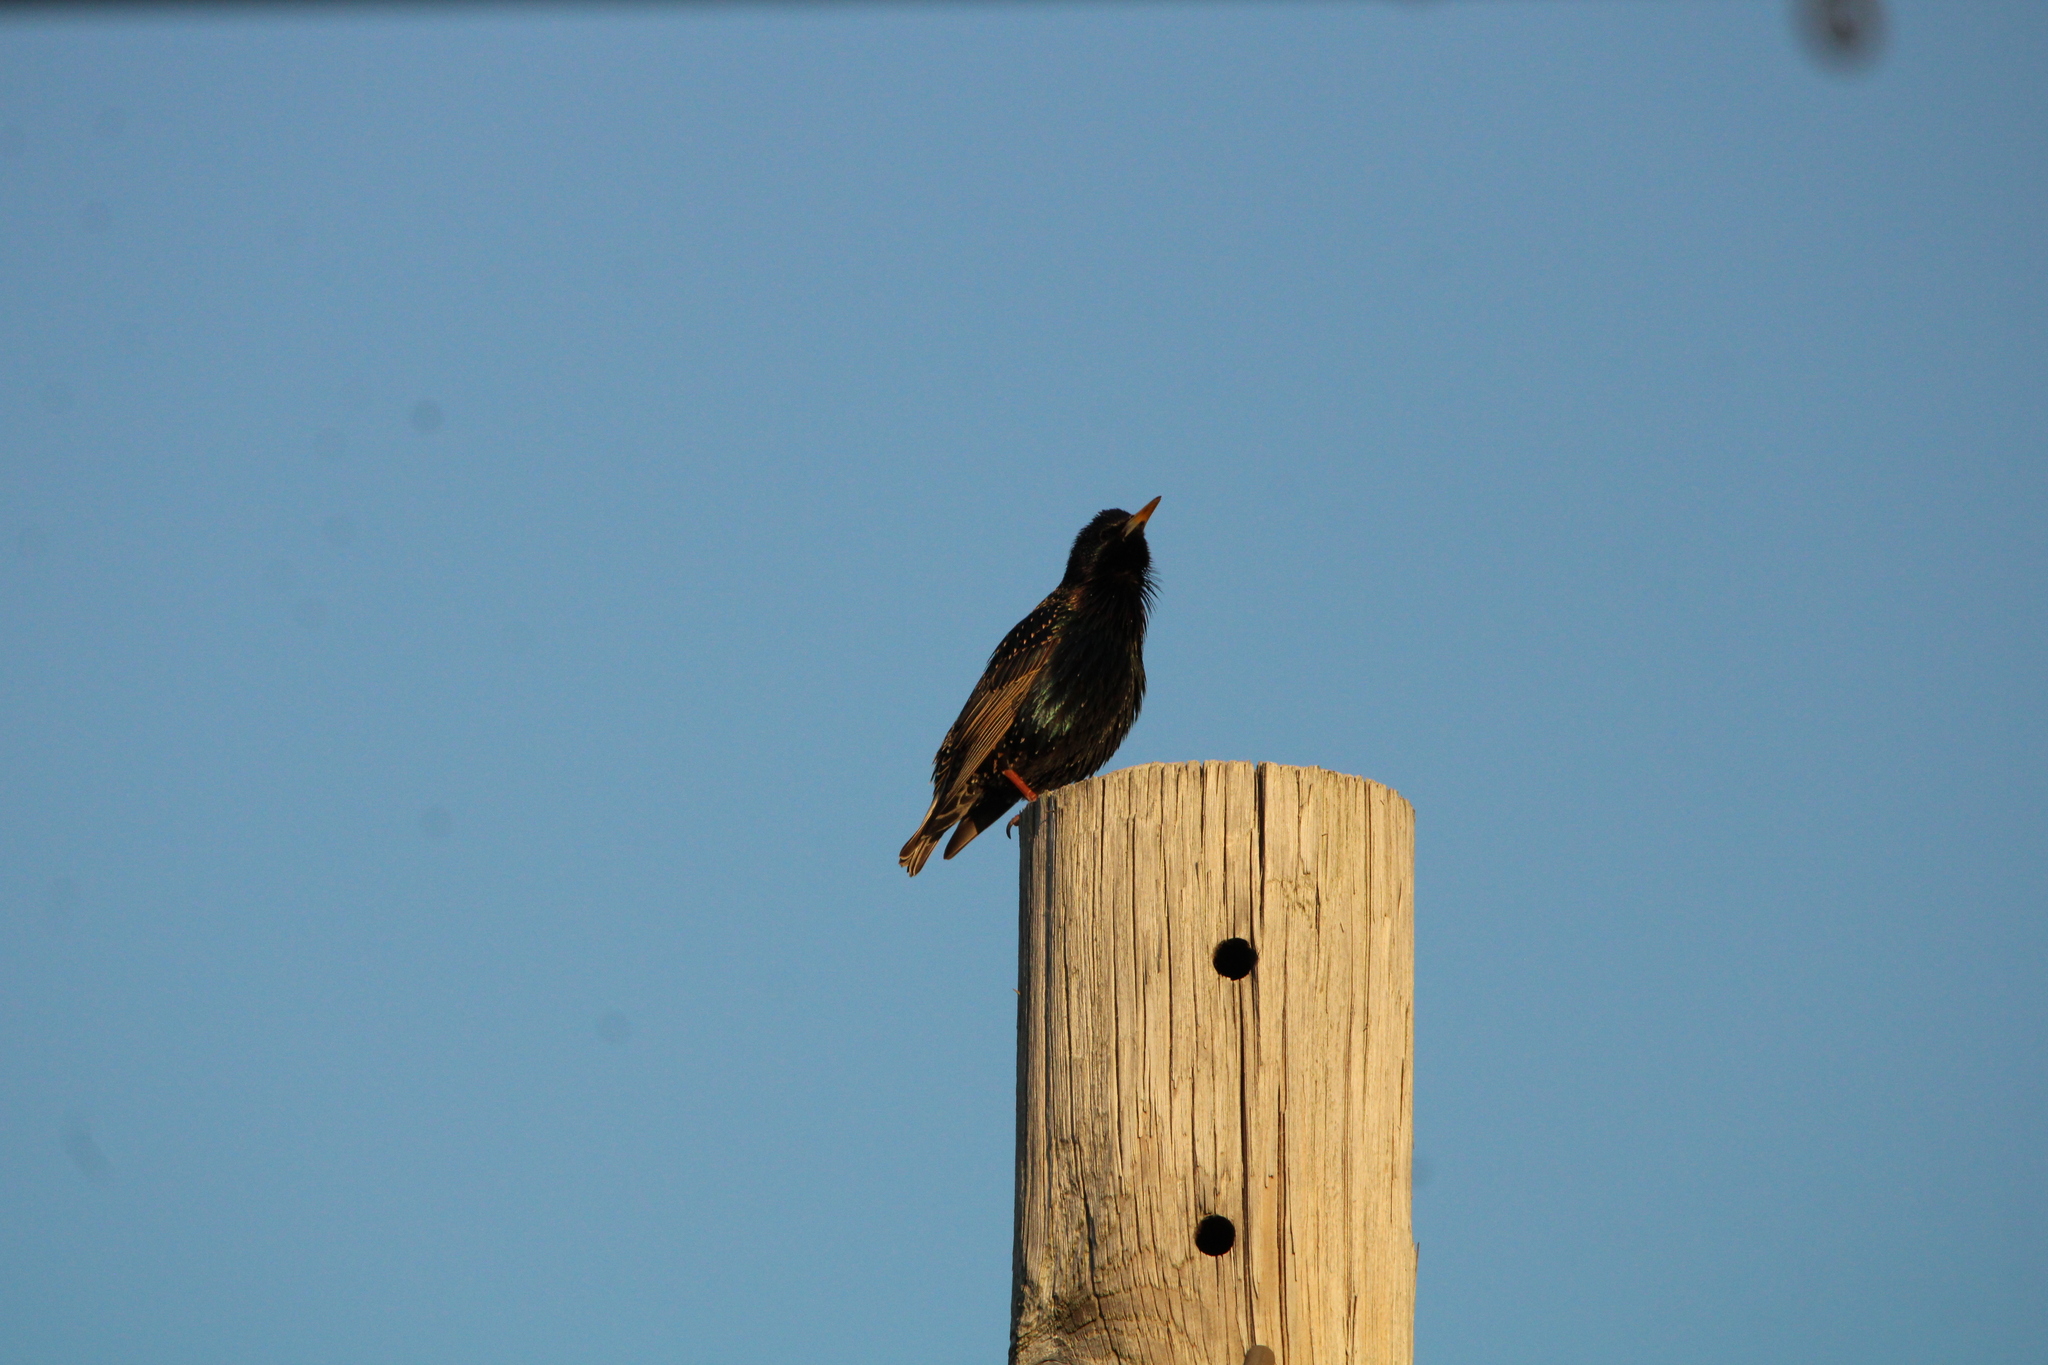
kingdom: Animalia
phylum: Chordata
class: Aves
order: Passeriformes
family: Sturnidae
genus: Sturnus
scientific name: Sturnus vulgaris
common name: Common starling
